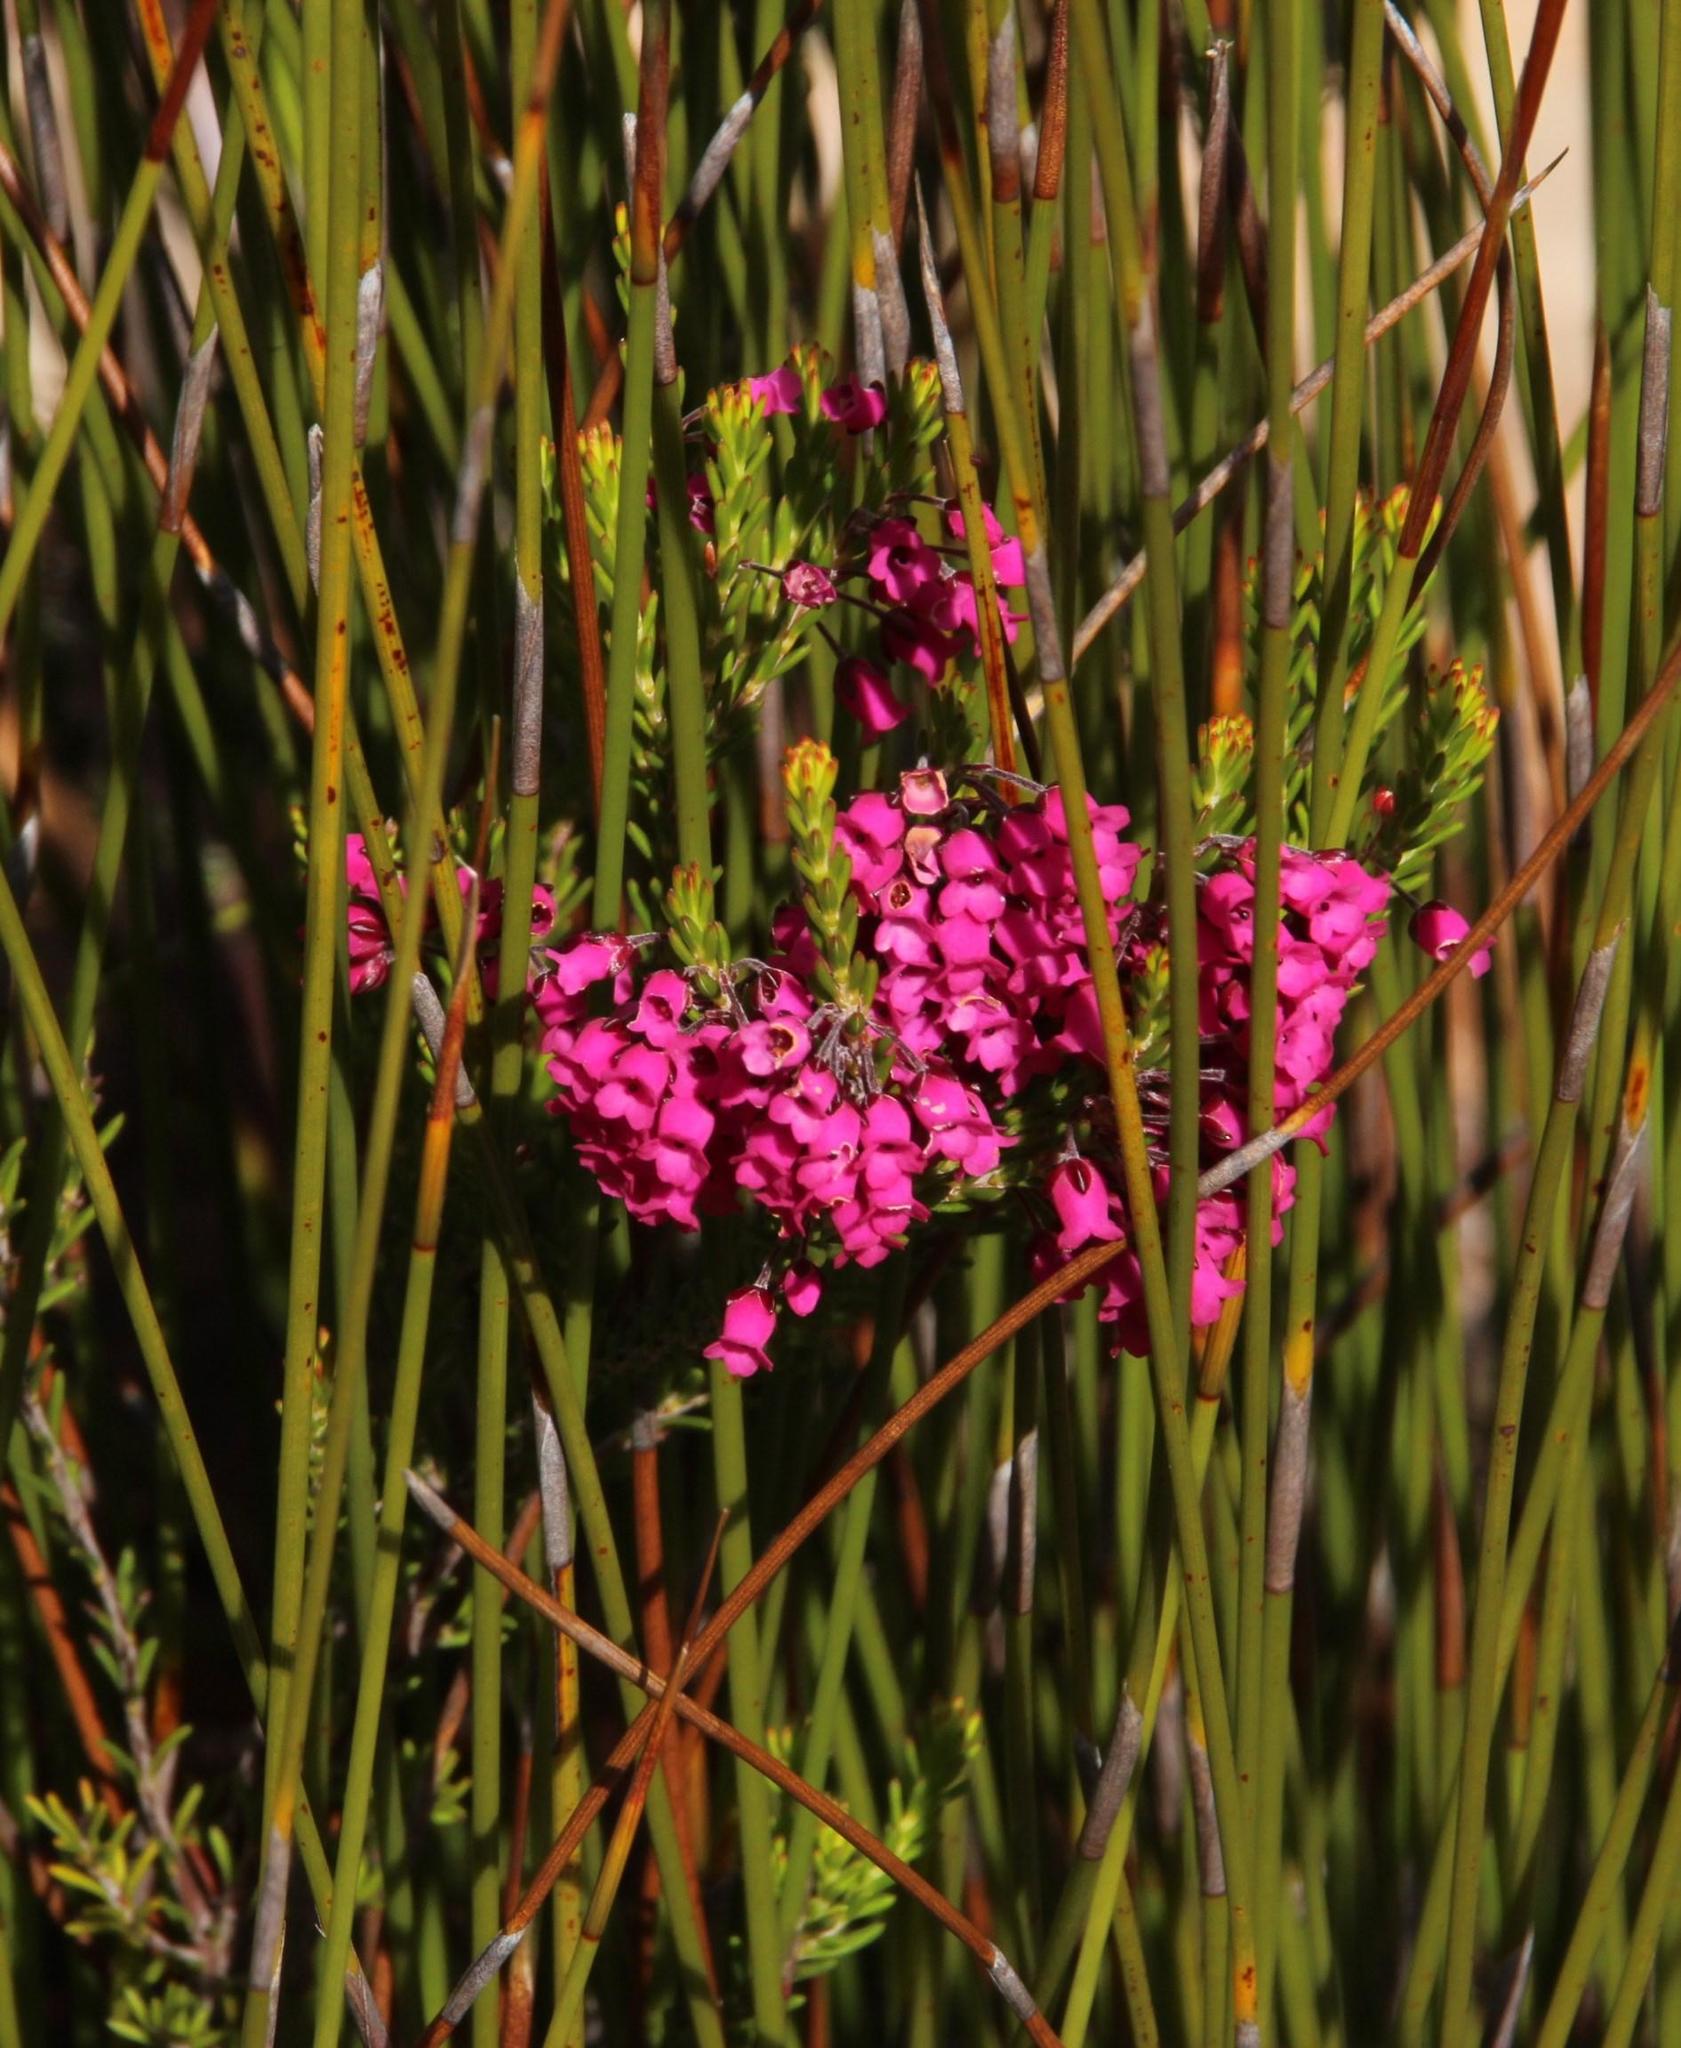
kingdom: Plantae
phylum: Tracheophyta
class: Magnoliopsida
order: Ericales
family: Ericaceae
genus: Erica
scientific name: Erica pulchella
